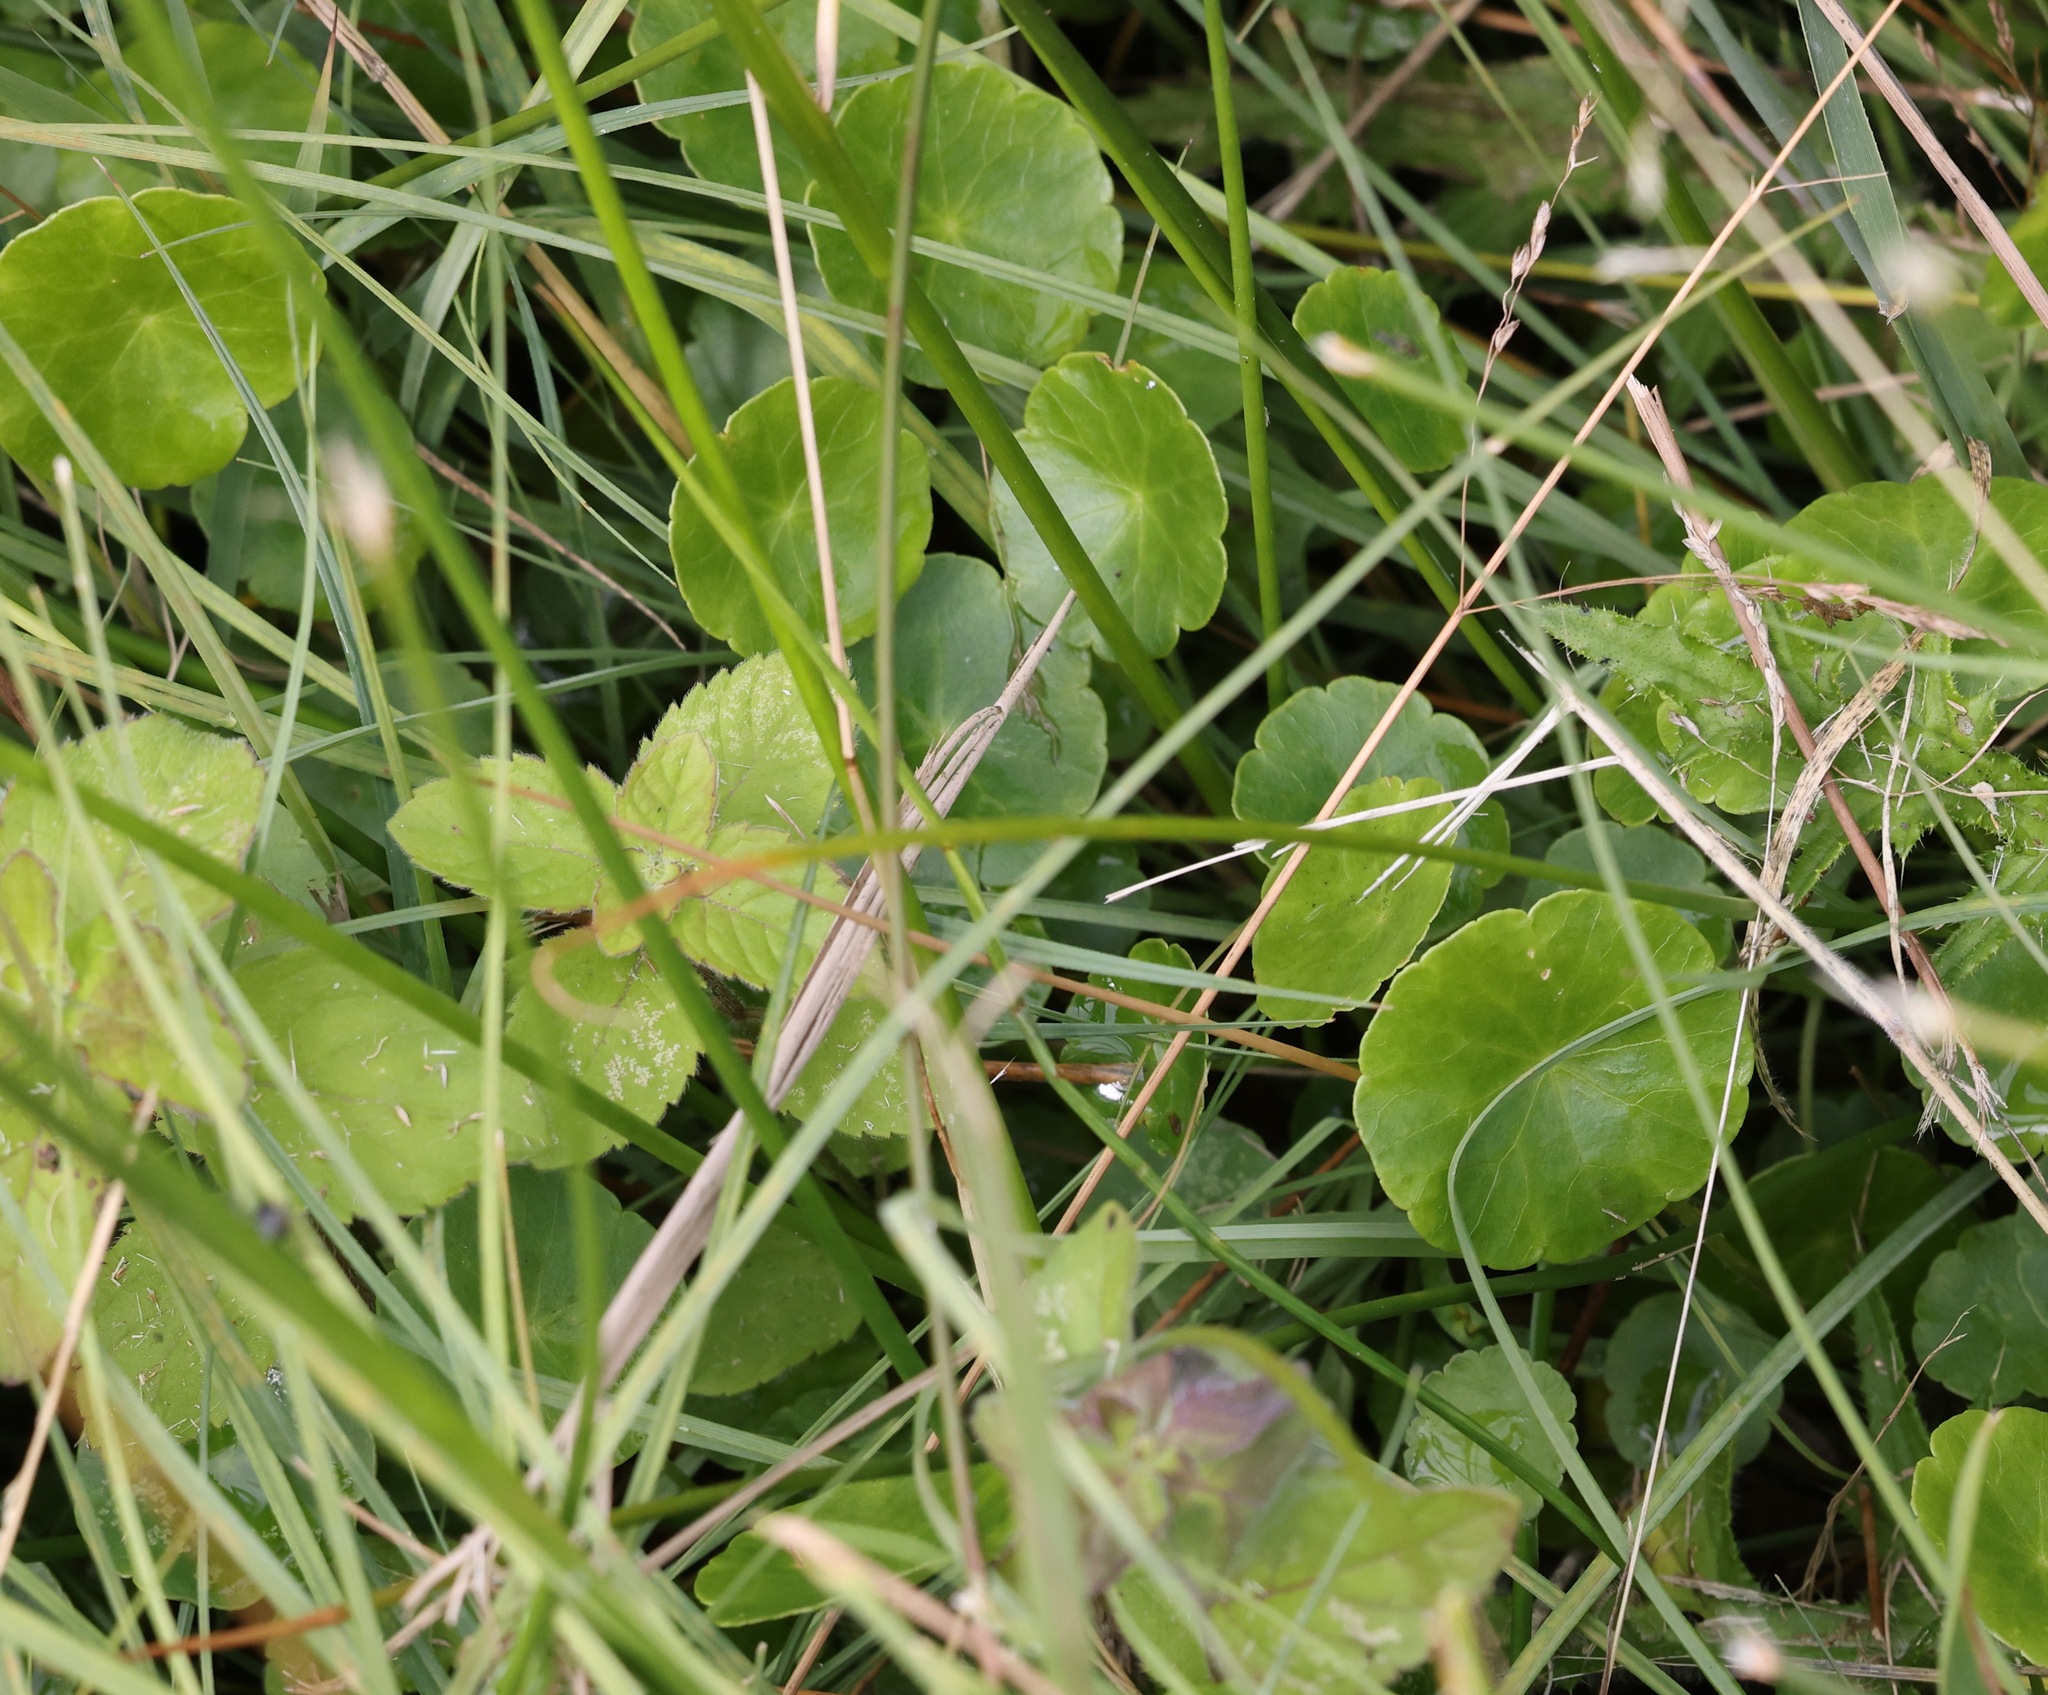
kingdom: Plantae
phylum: Tracheophyta
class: Magnoliopsida
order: Apiales
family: Araliaceae
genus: Hydrocotyle
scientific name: Hydrocotyle vulgaris
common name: Marsh pennywort
